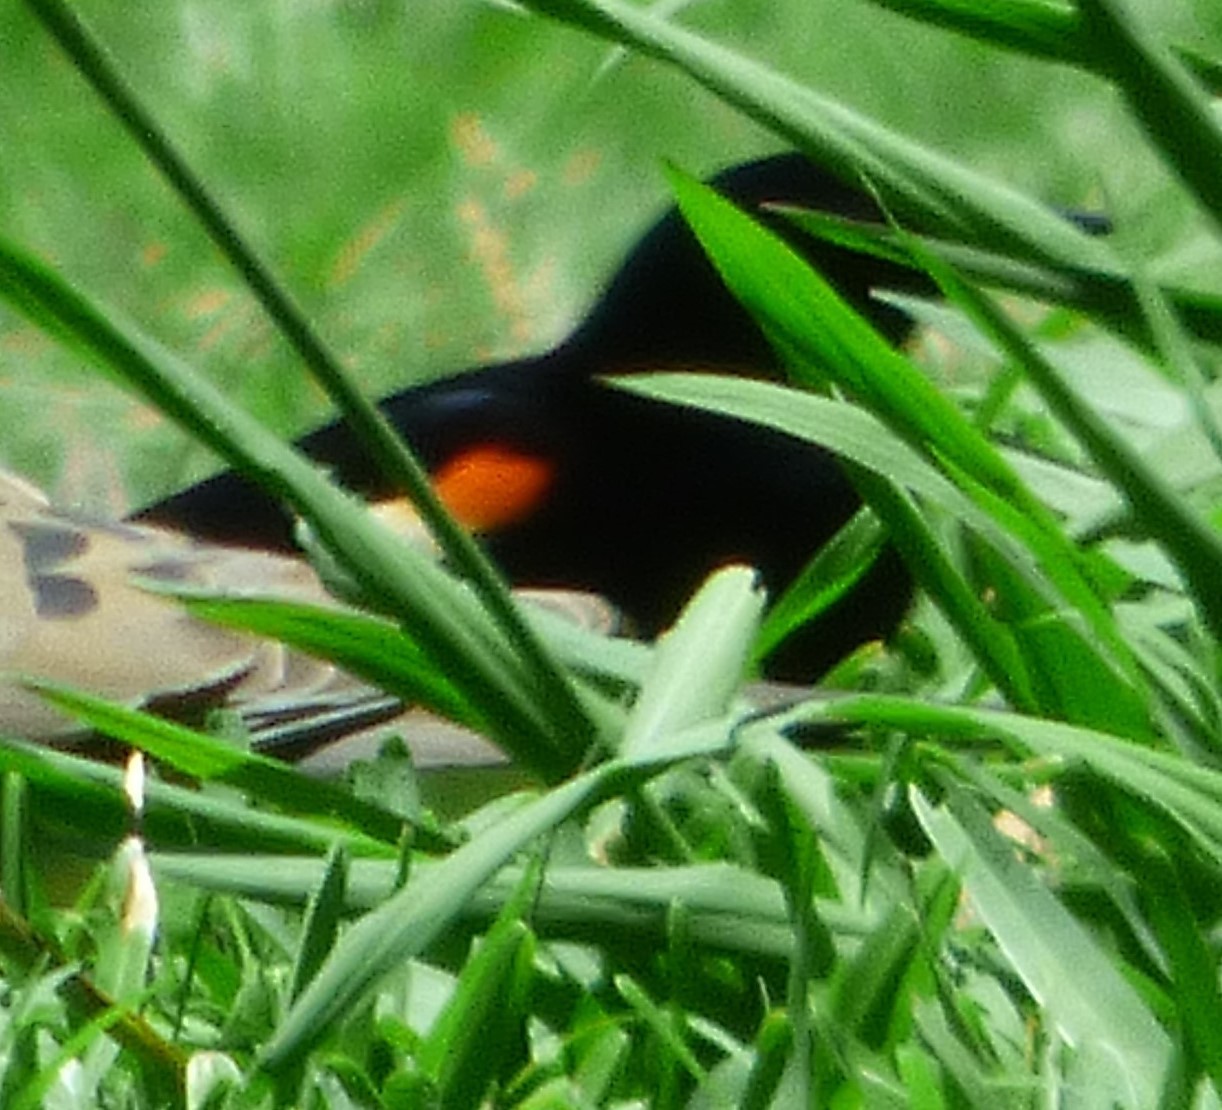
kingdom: Animalia
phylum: Chordata
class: Aves
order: Passeriformes
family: Icteridae
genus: Agelaius
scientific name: Agelaius phoeniceus
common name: Red-winged blackbird
